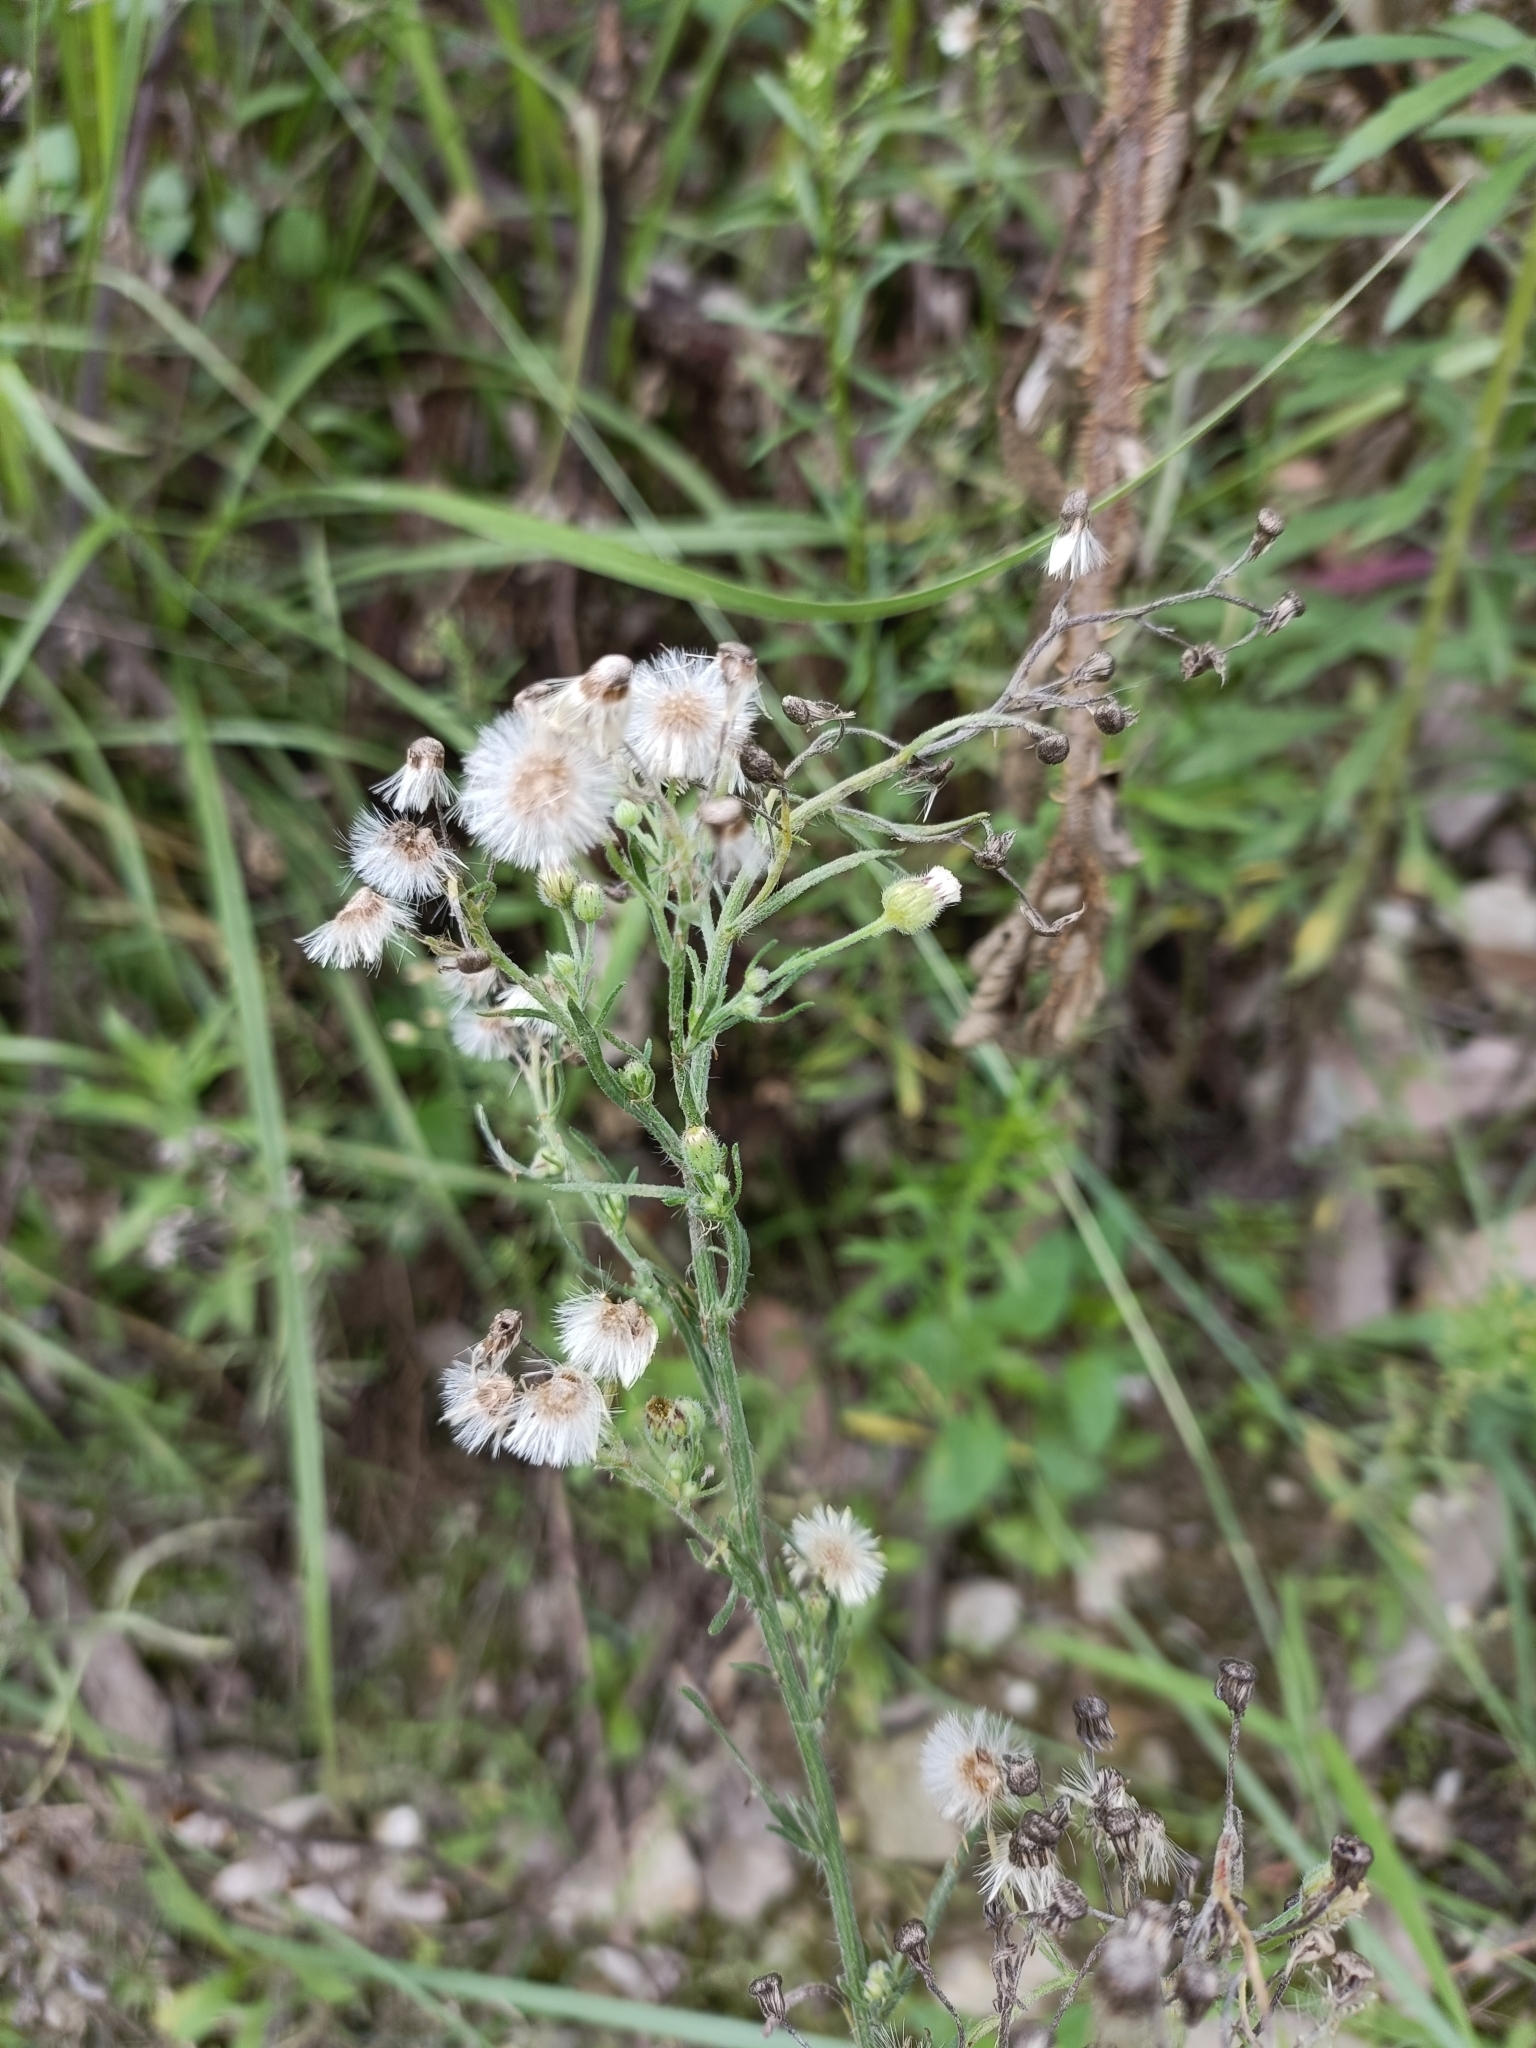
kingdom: Plantae
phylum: Tracheophyta
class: Magnoliopsida
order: Asterales
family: Asteraceae
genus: Erigeron
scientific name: Erigeron bonariensis
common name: Argentine fleabane
